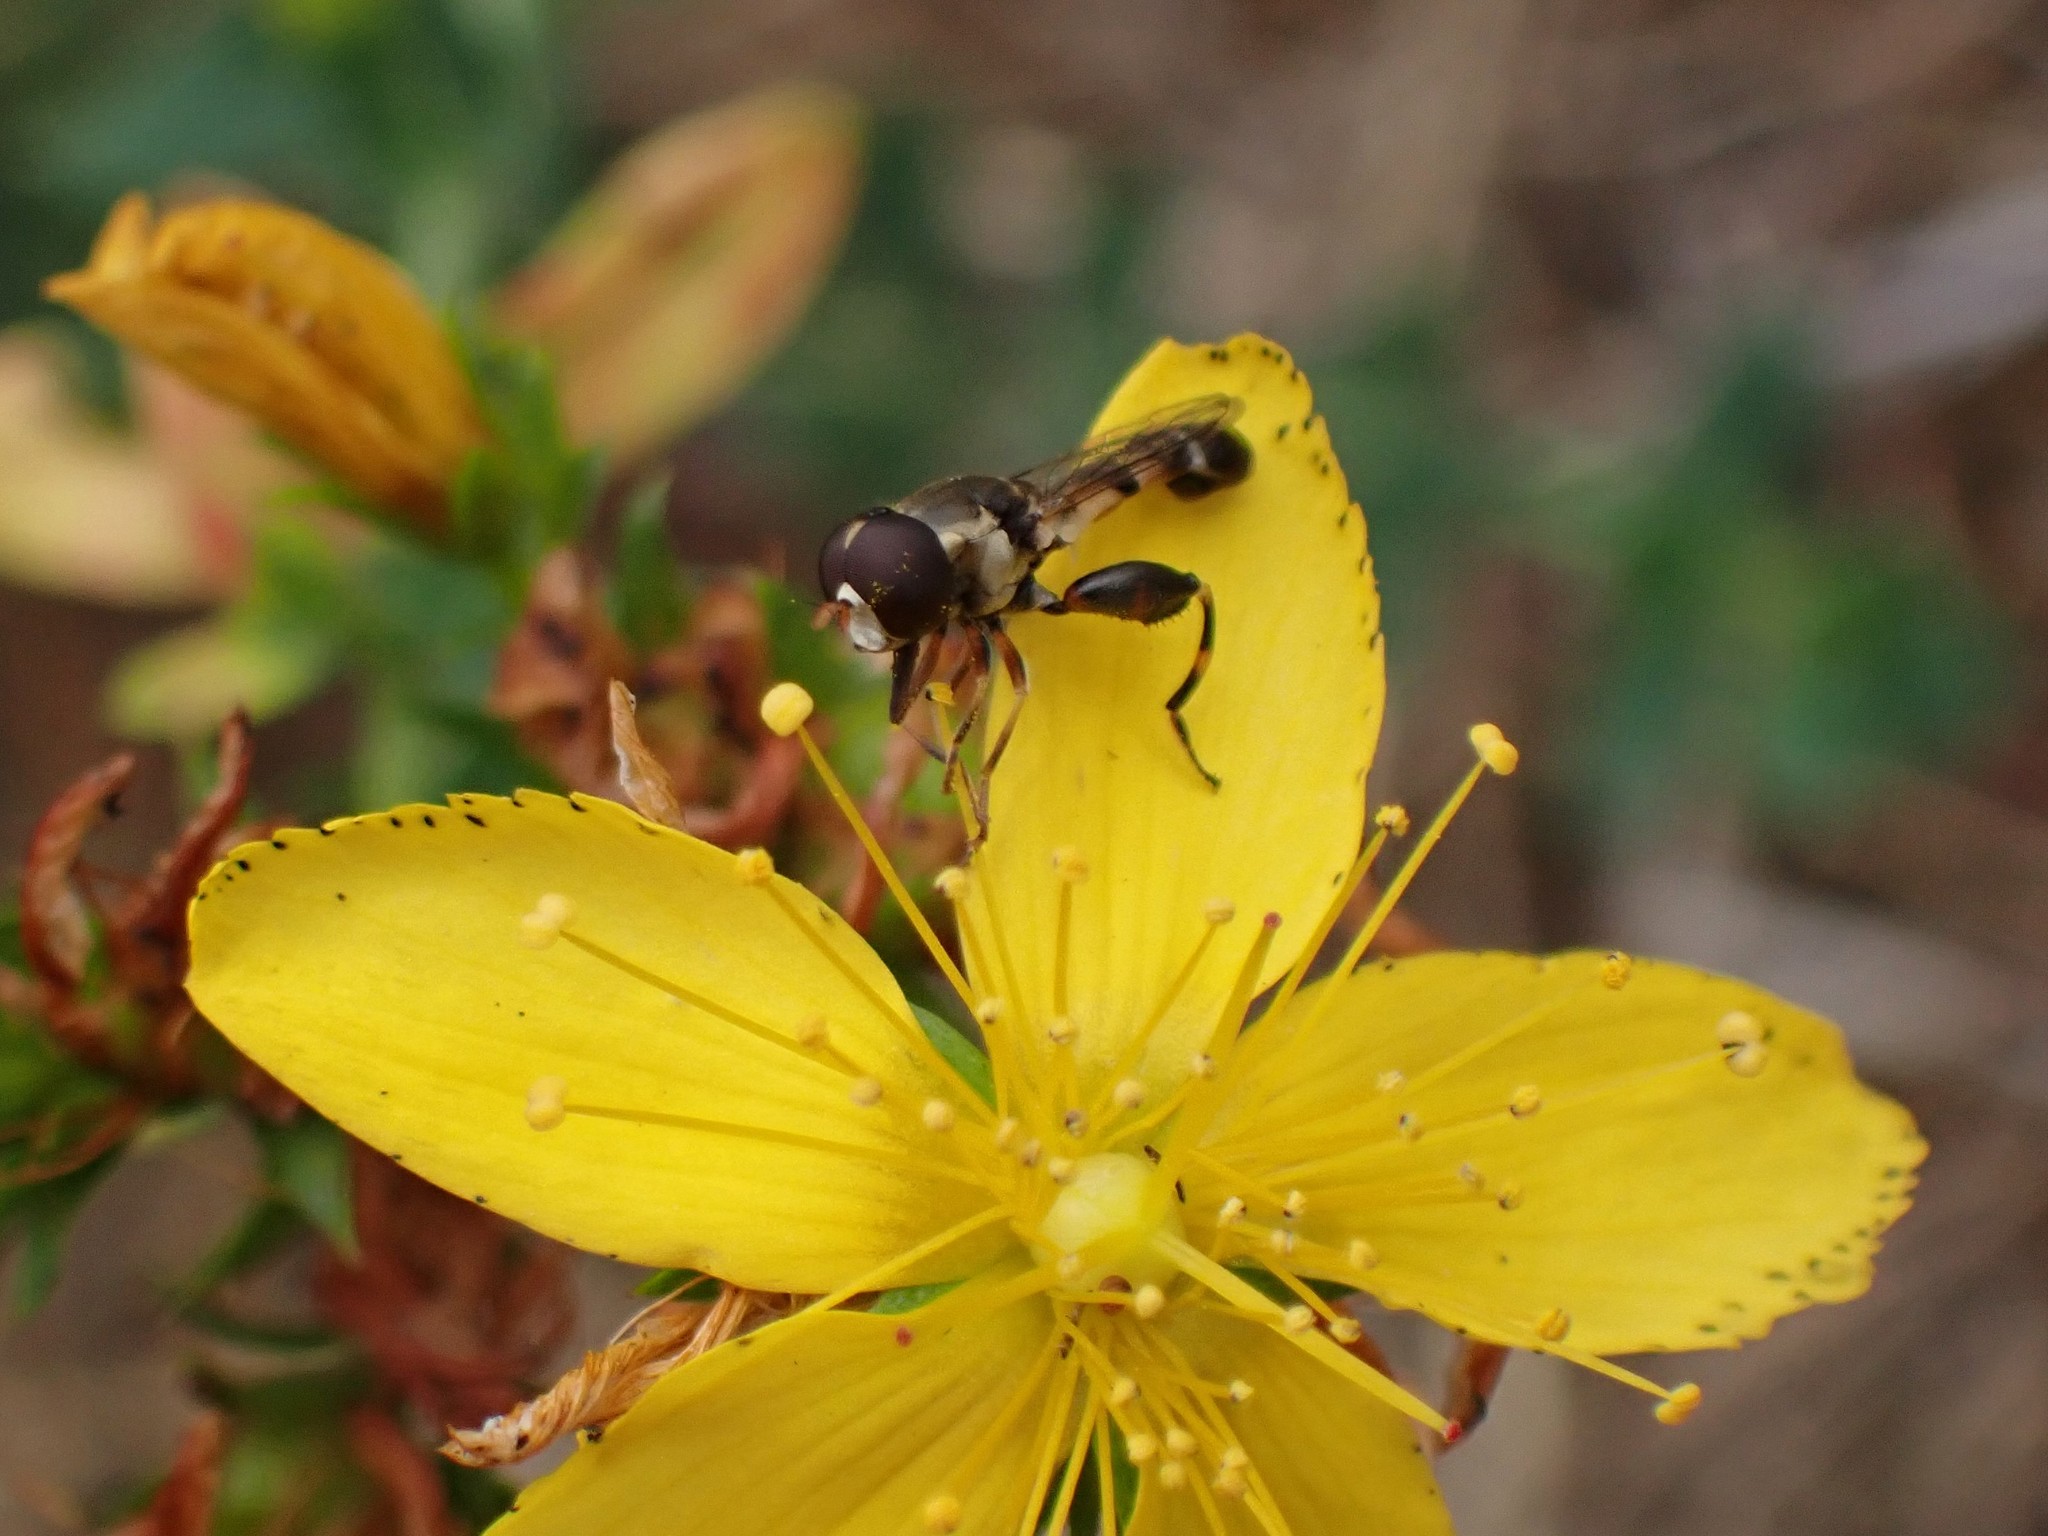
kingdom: Animalia
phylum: Arthropoda
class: Insecta
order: Diptera
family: Syrphidae
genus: Syritta
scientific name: Syritta pipiens
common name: Hover fly
